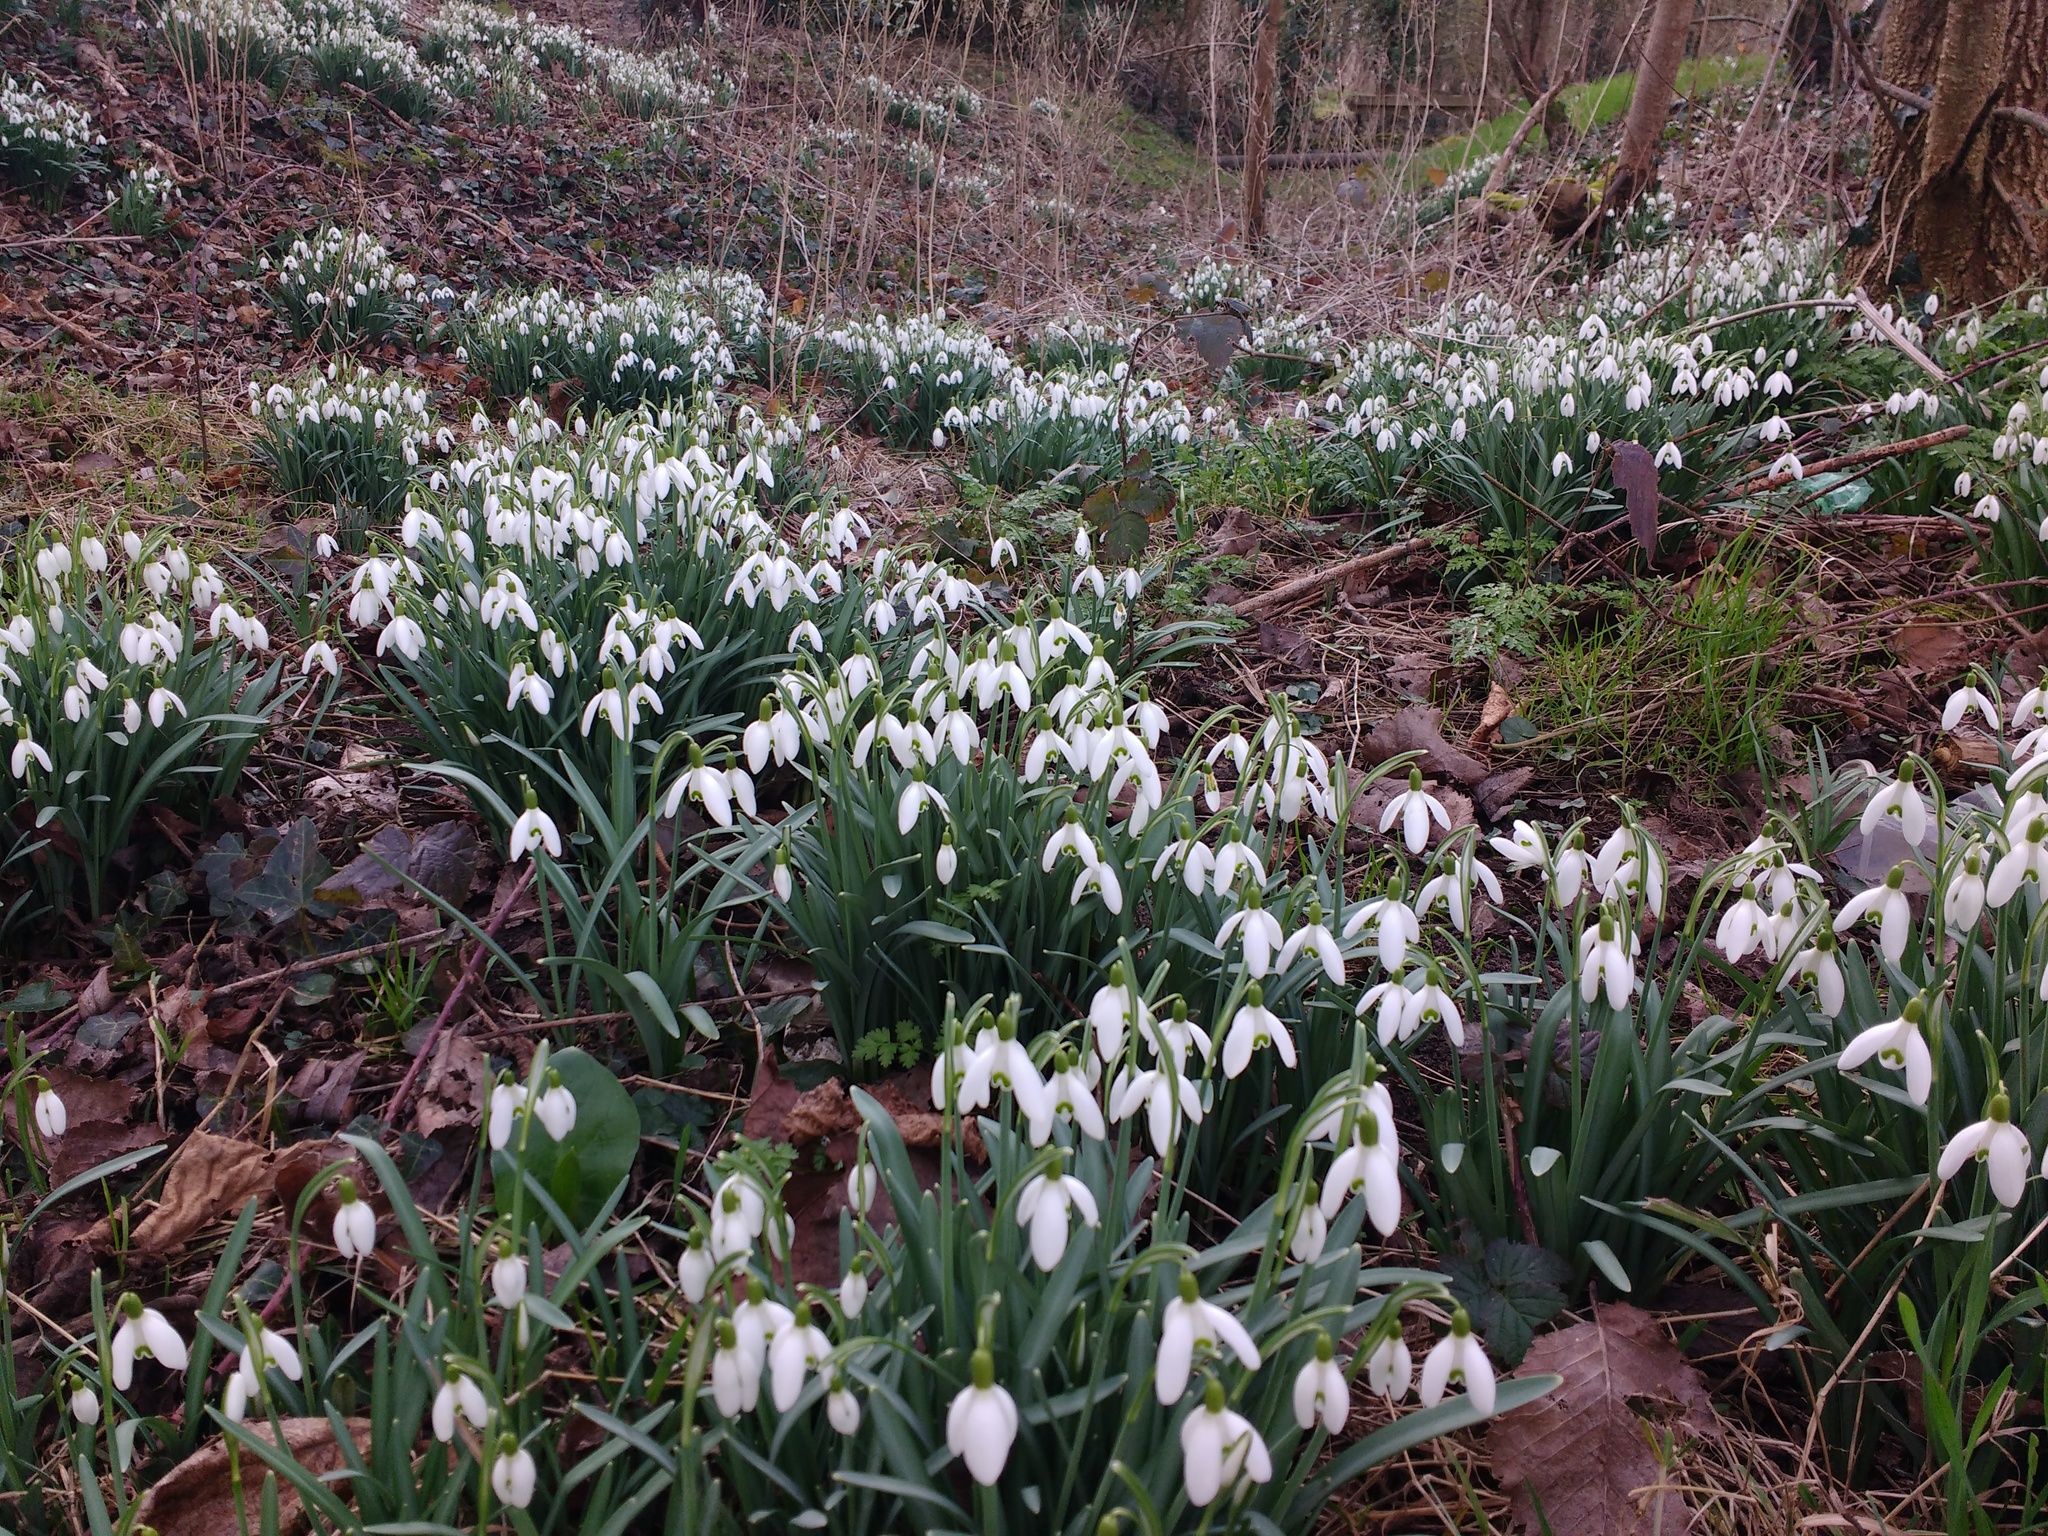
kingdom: Plantae
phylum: Tracheophyta
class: Liliopsida
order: Asparagales
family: Amaryllidaceae
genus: Galanthus
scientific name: Galanthus nivalis
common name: Snowdrop
